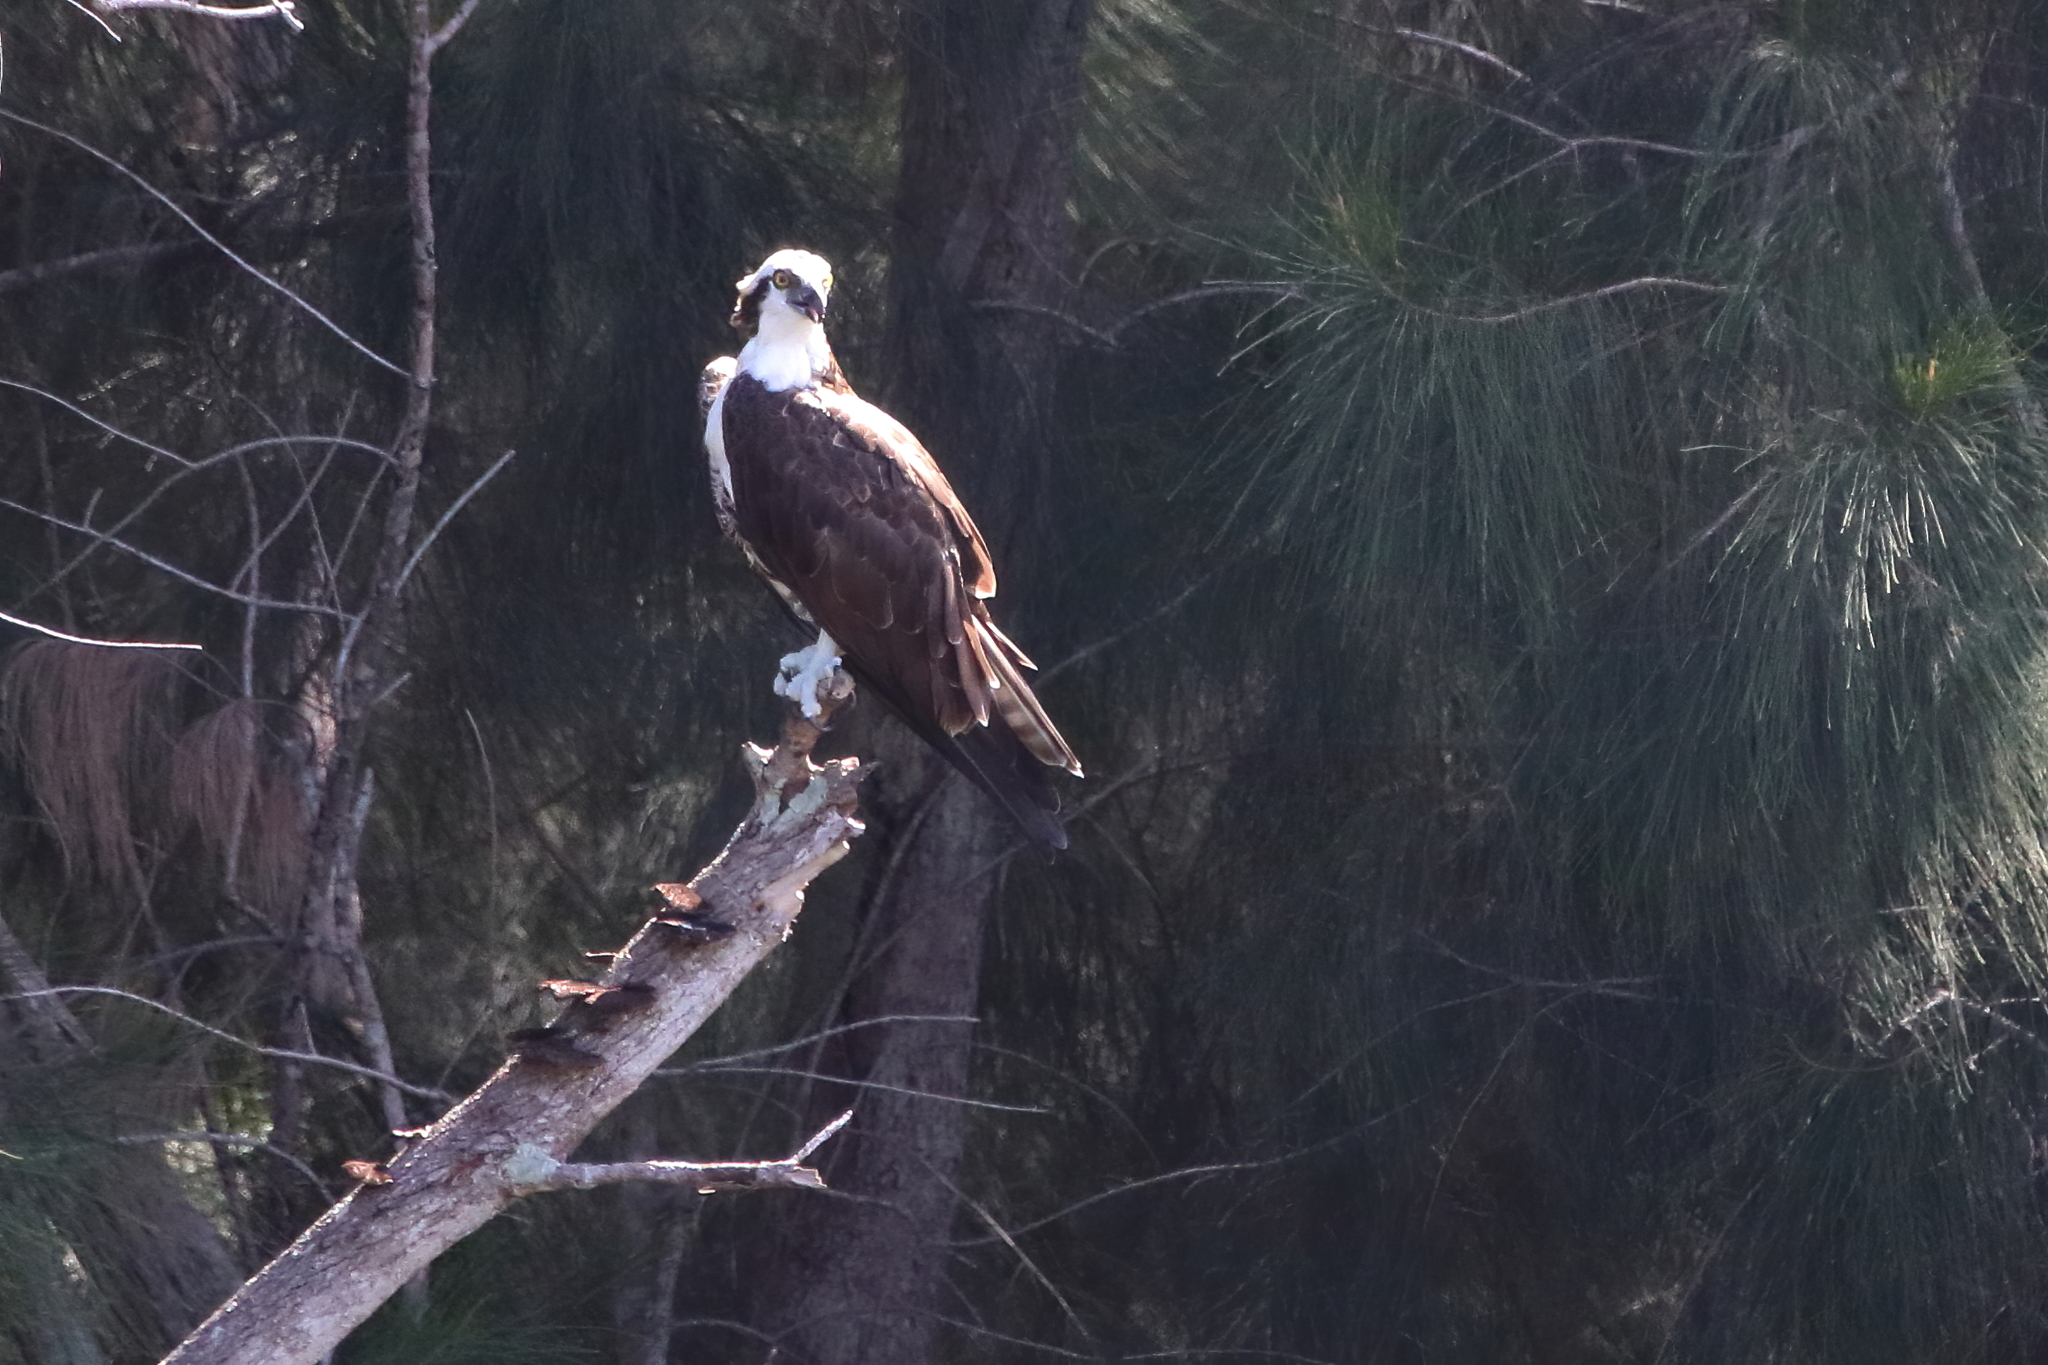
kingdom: Animalia
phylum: Chordata
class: Aves
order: Accipitriformes
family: Pandionidae
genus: Pandion
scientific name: Pandion haliaetus
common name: Osprey
